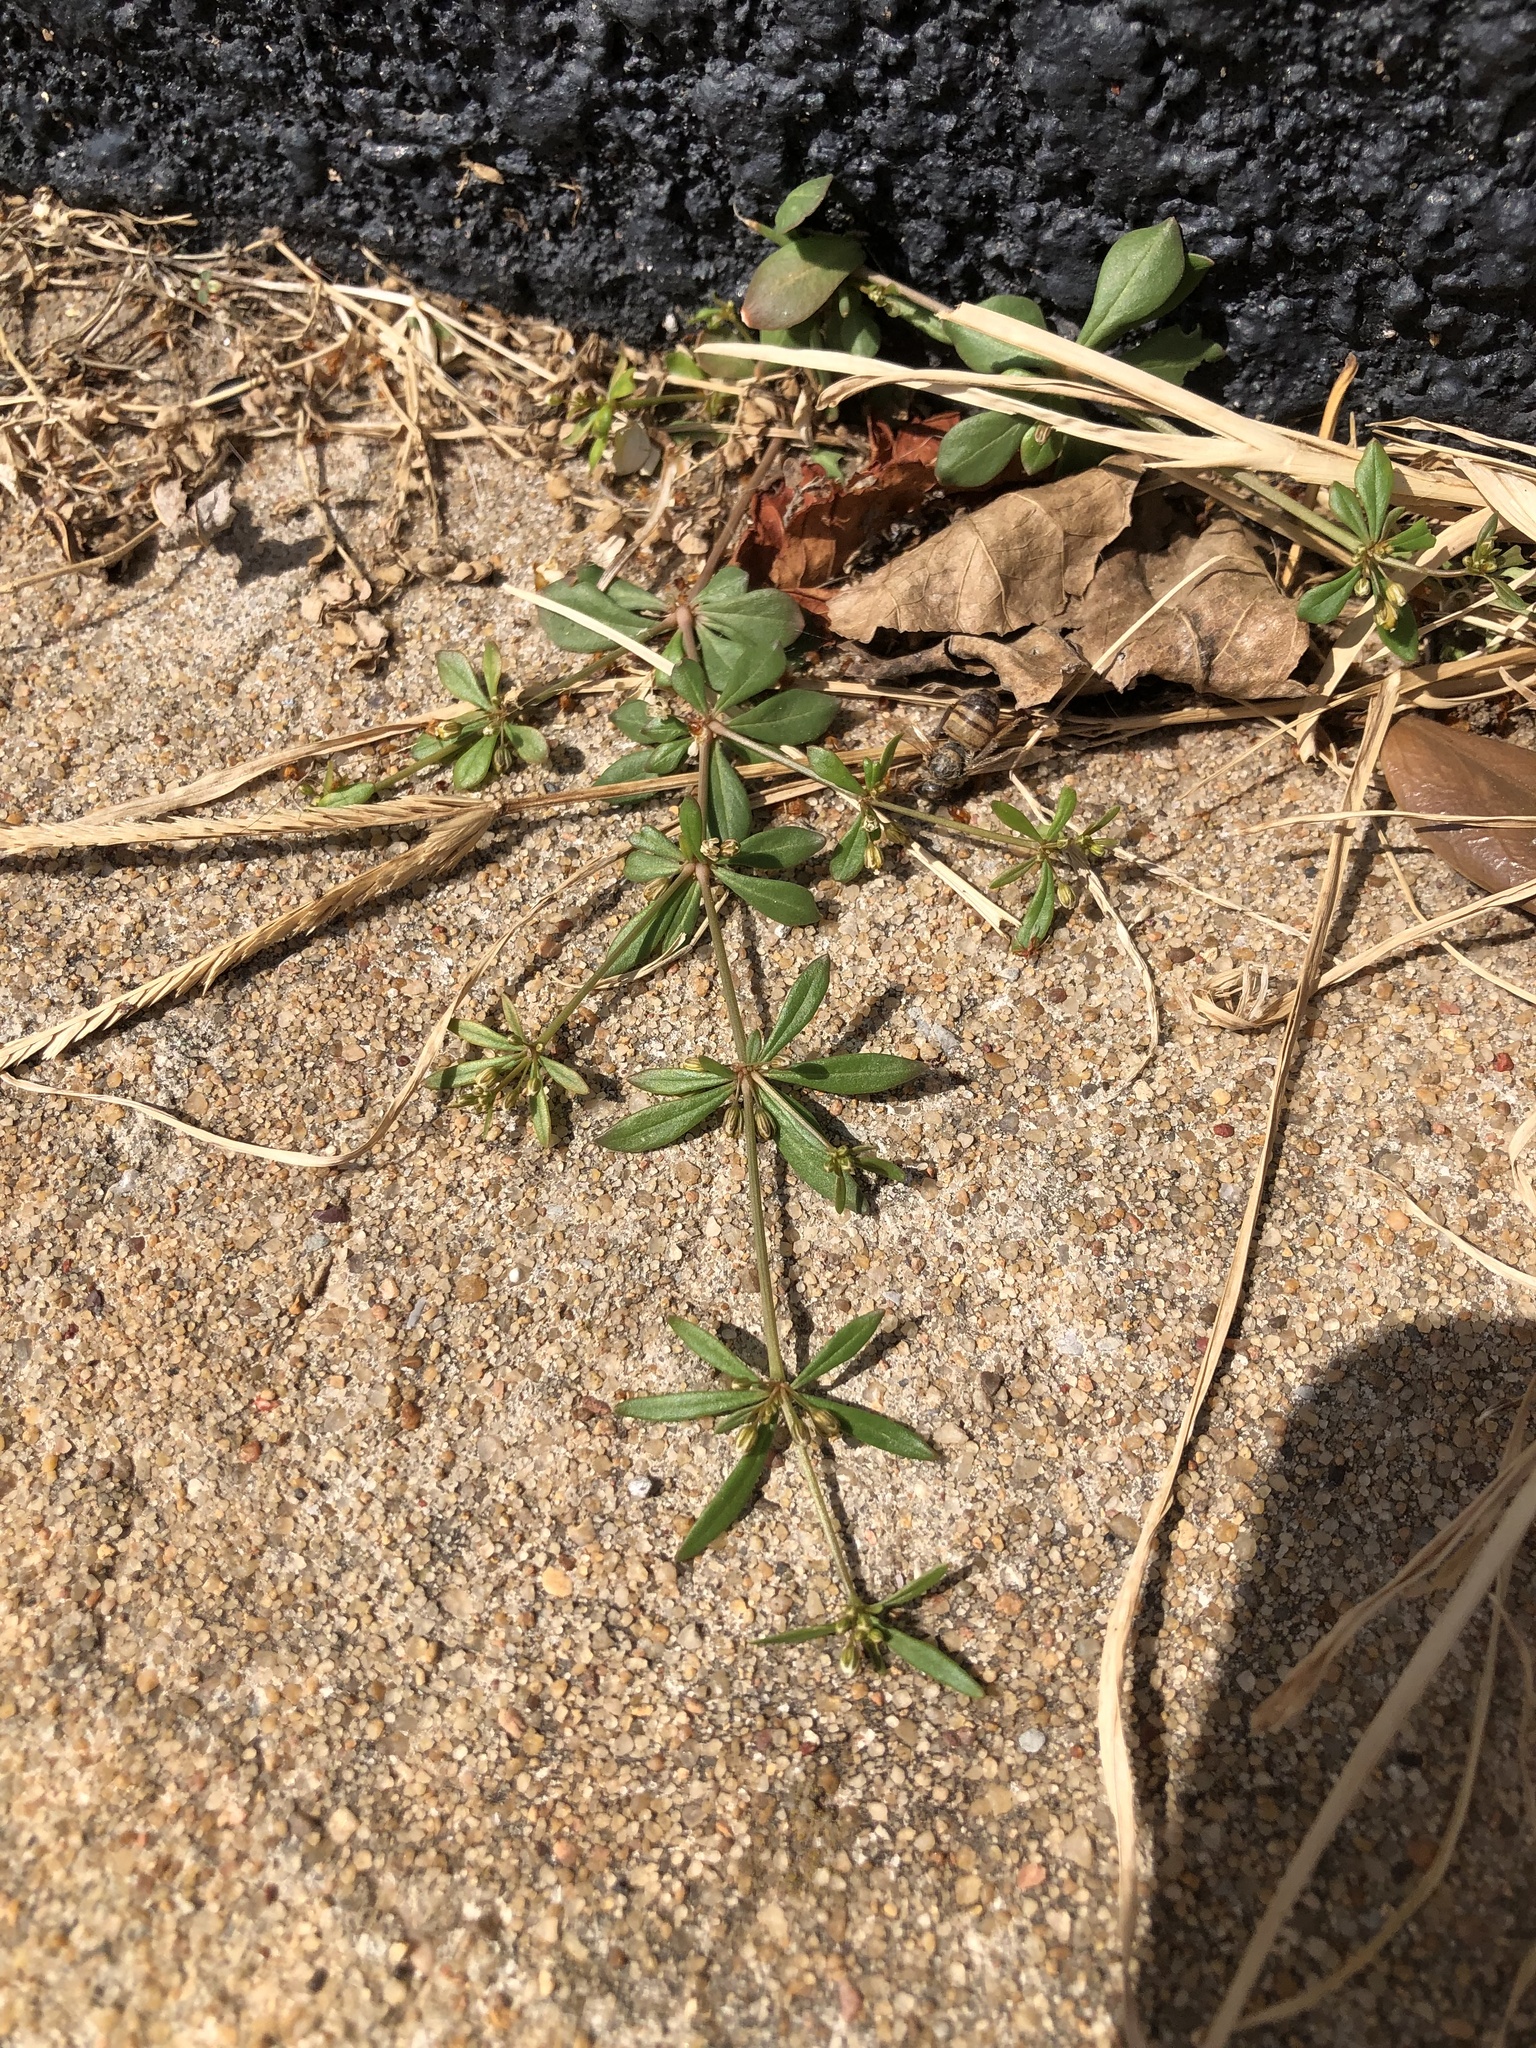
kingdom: Plantae
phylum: Tracheophyta
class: Magnoliopsida
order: Caryophyllales
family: Molluginaceae
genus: Mollugo
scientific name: Mollugo verticillata
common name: Green carpetweed
